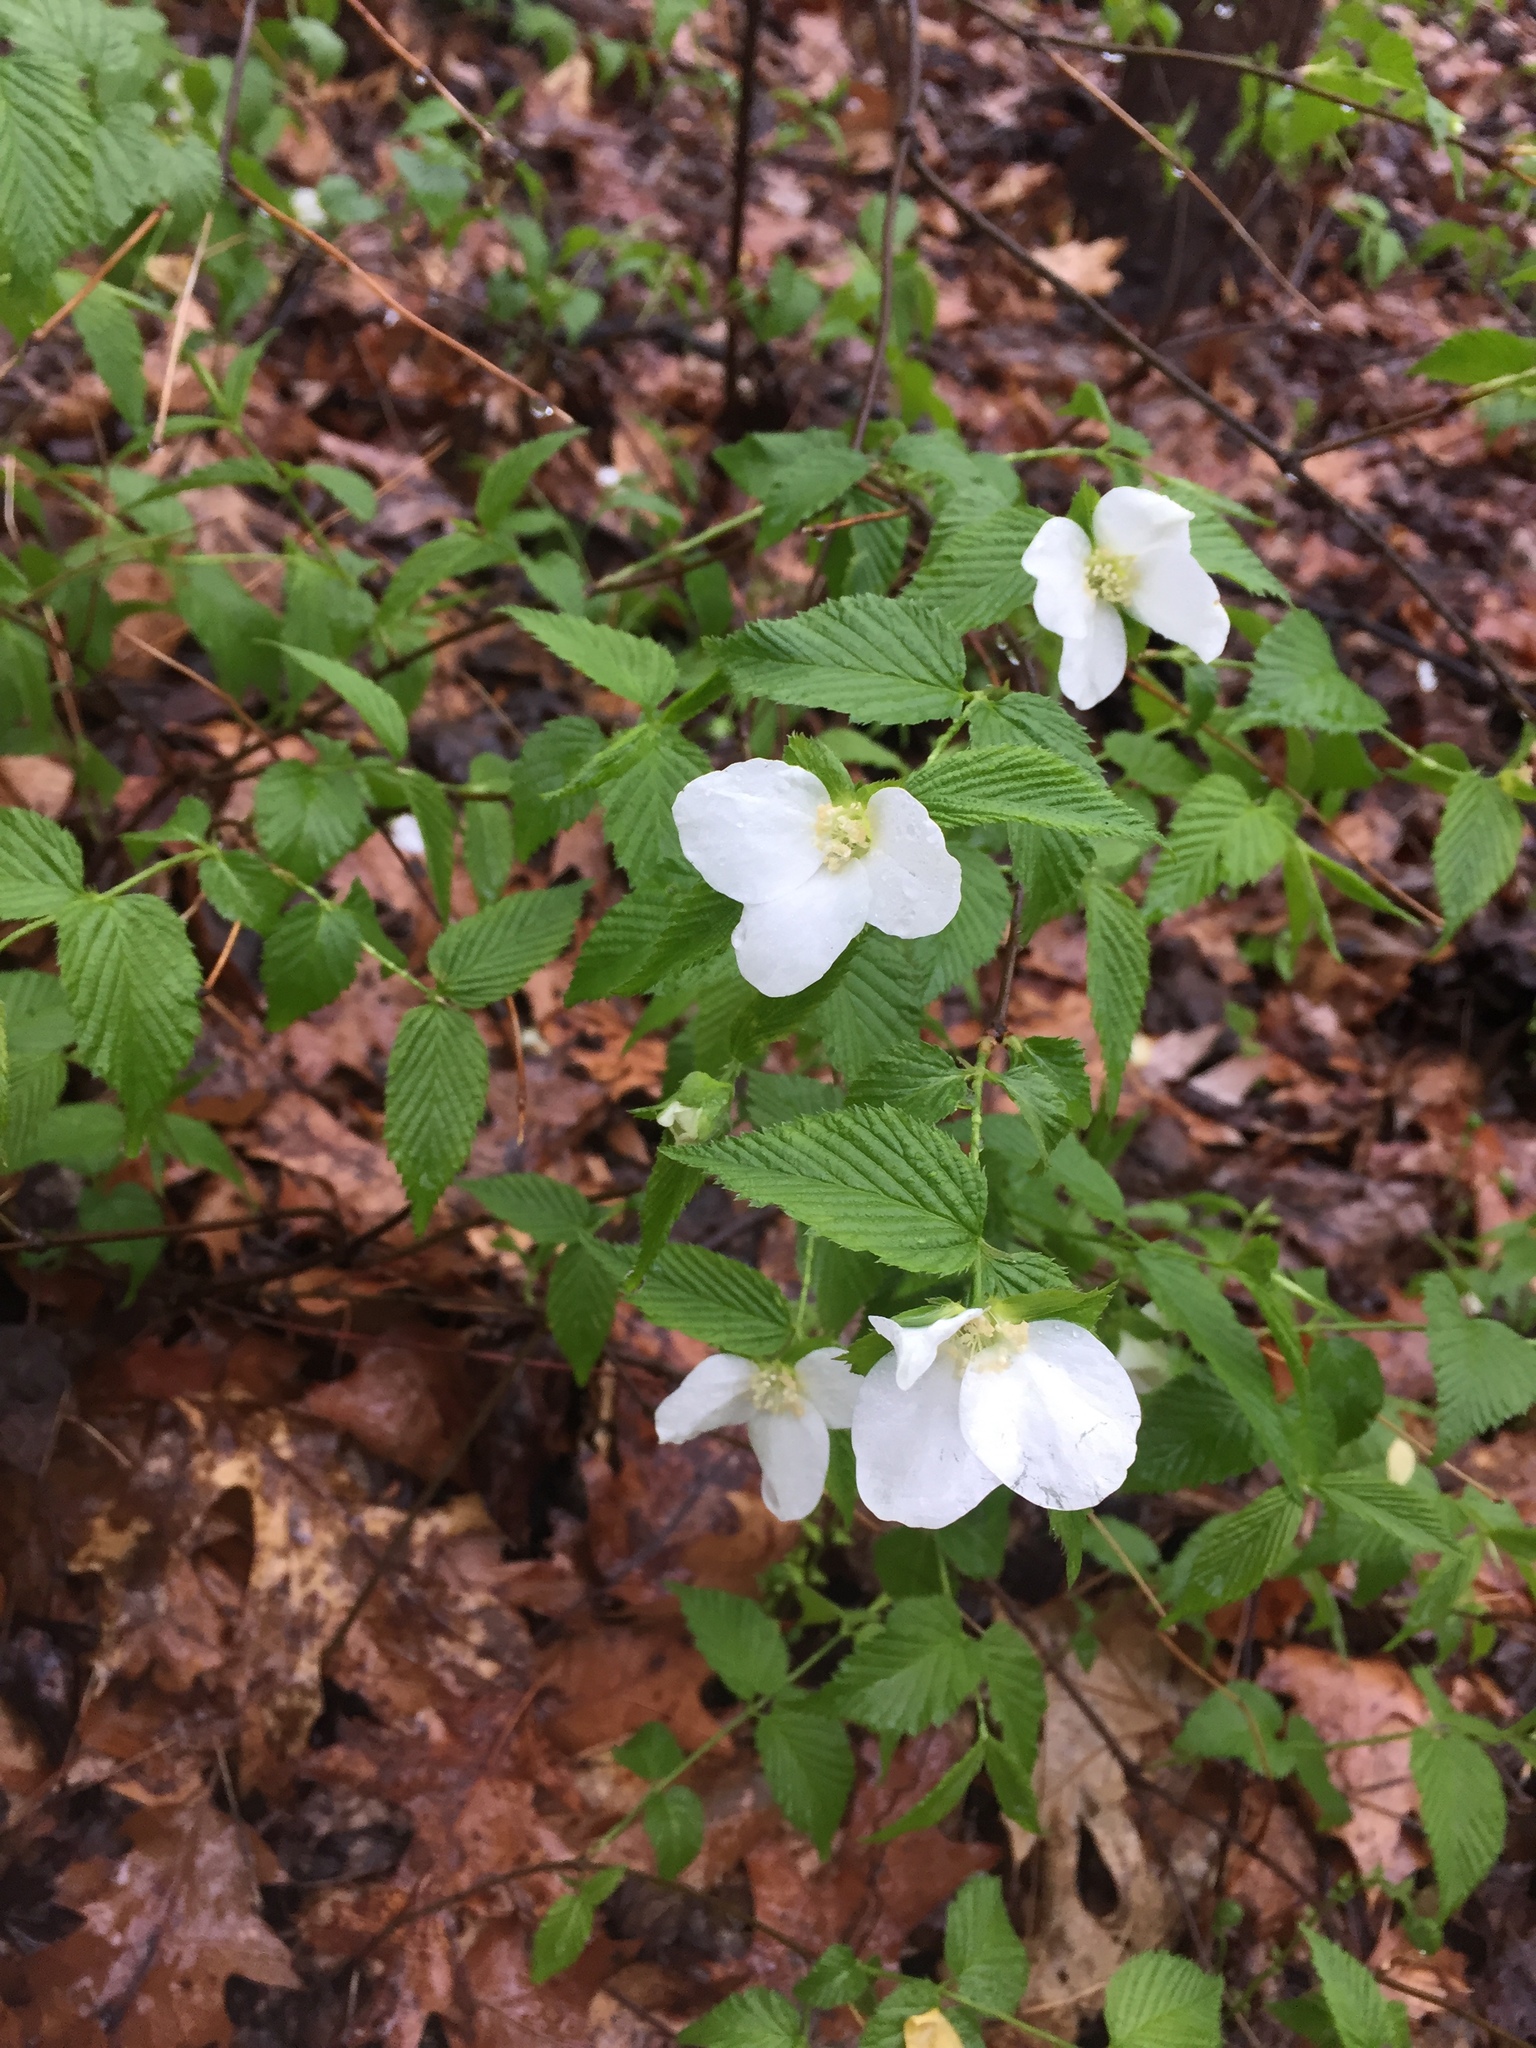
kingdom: Plantae
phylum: Tracheophyta
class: Magnoliopsida
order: Rosales
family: Rosaceae
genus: Rhodotypos
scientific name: Rhodotypos scandens
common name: Jetbead
